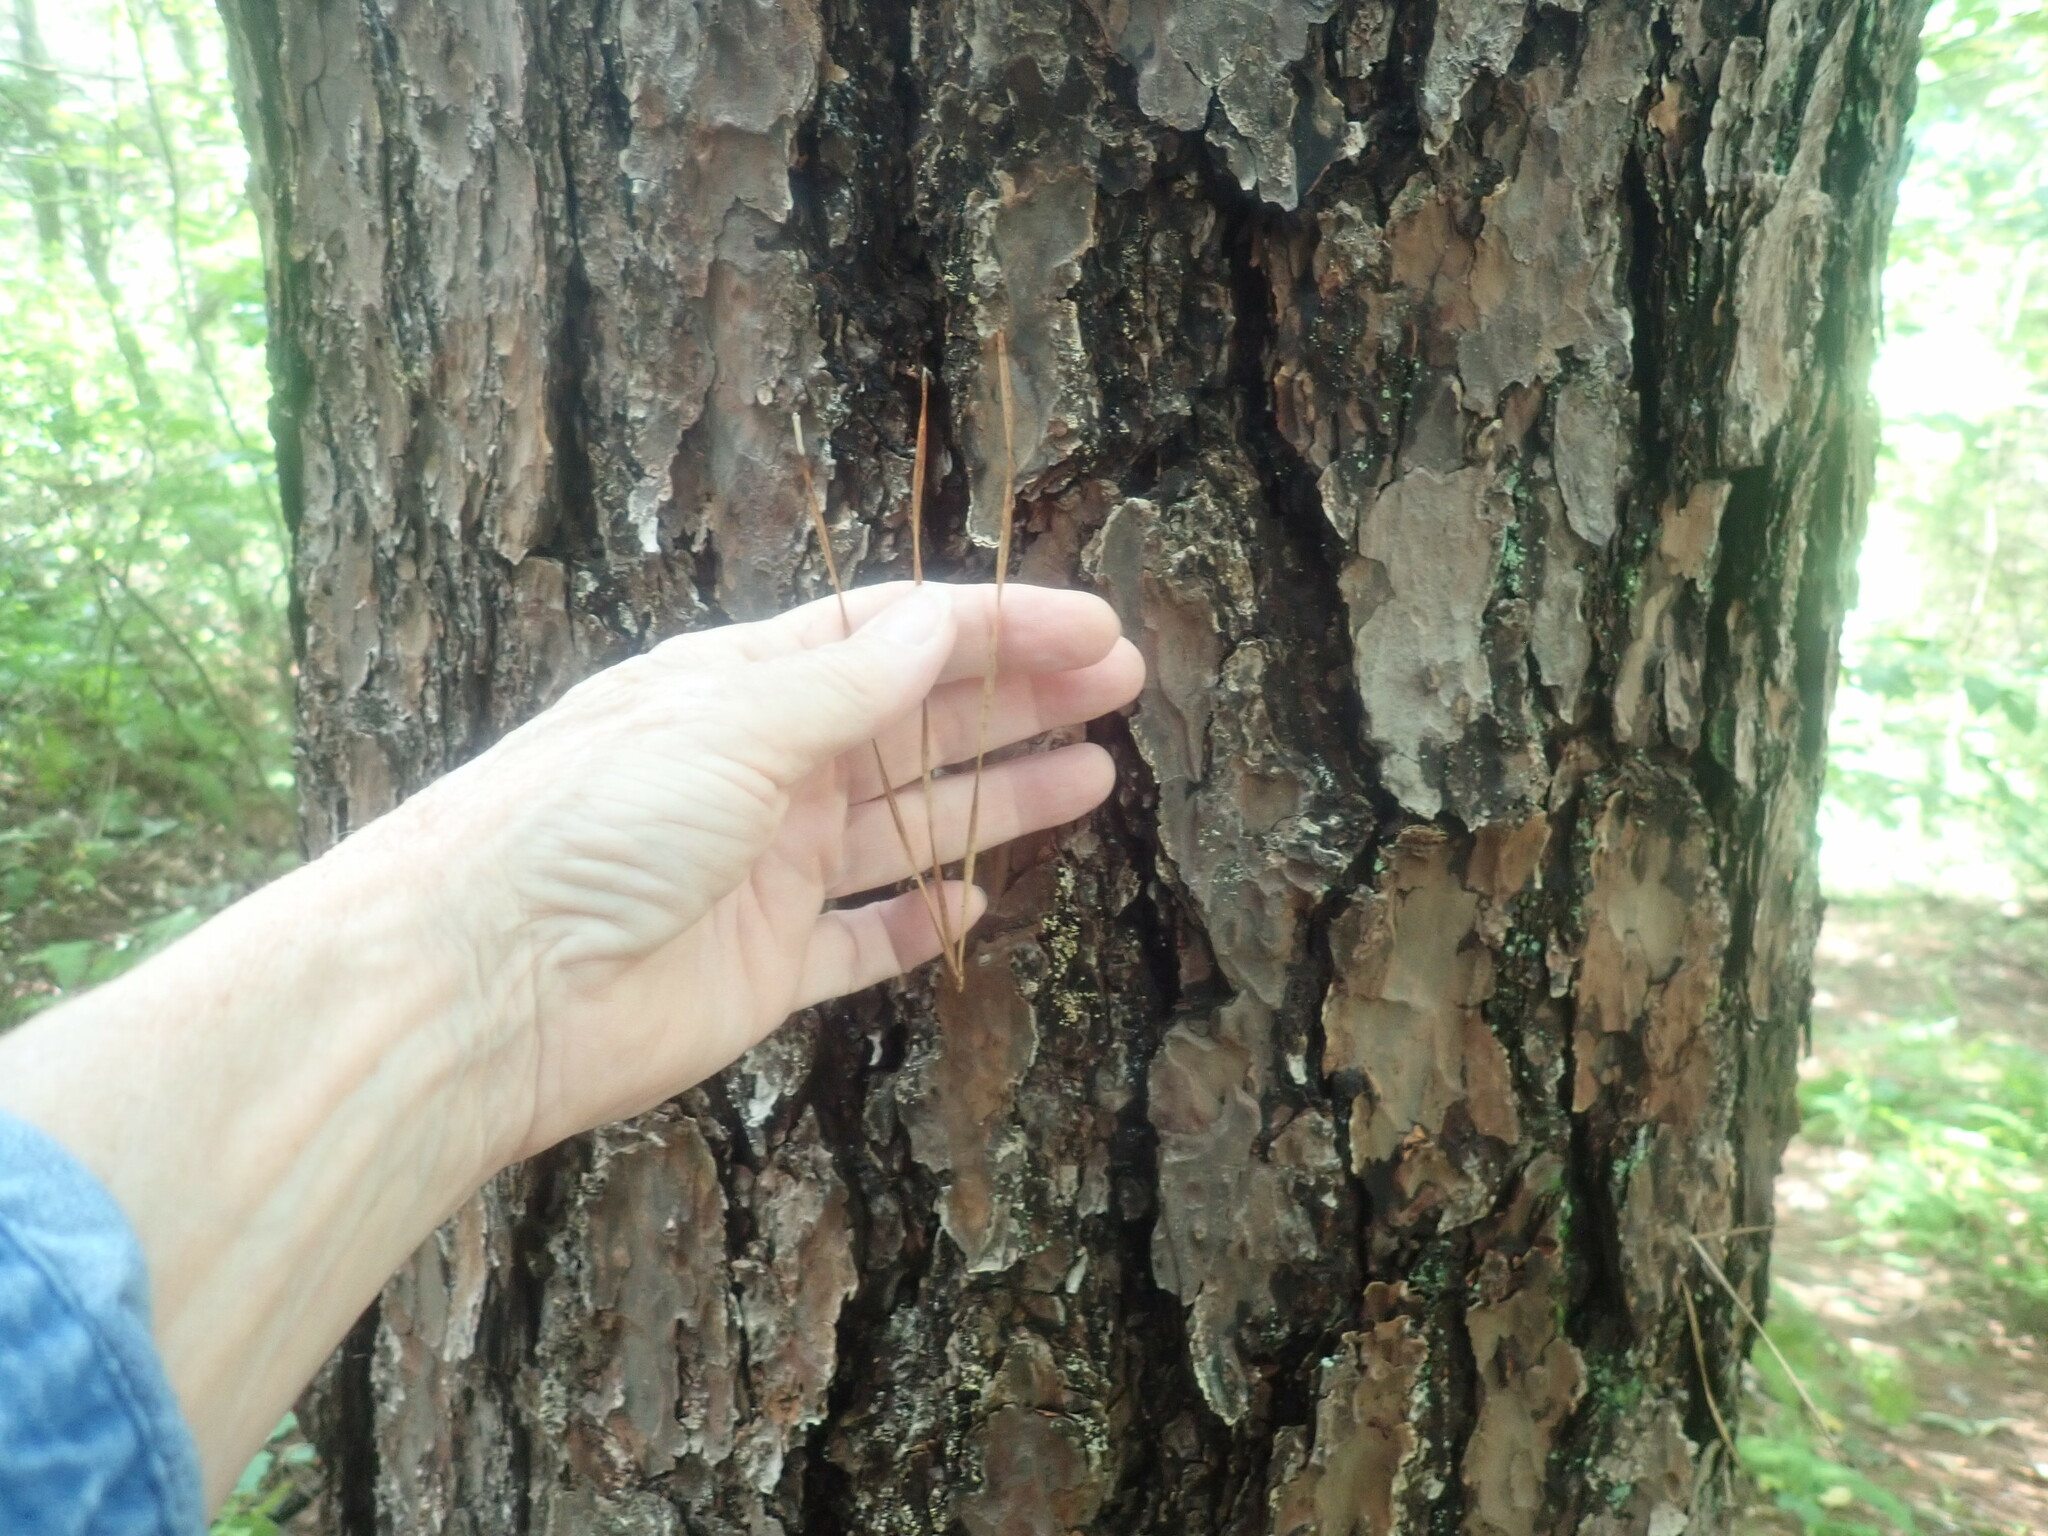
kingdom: Plantae
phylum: Tracheophyta
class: Pinopsida
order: Pinales
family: Pinaceae
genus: Pinus
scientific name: Pinus rigida
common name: Pitch pine
